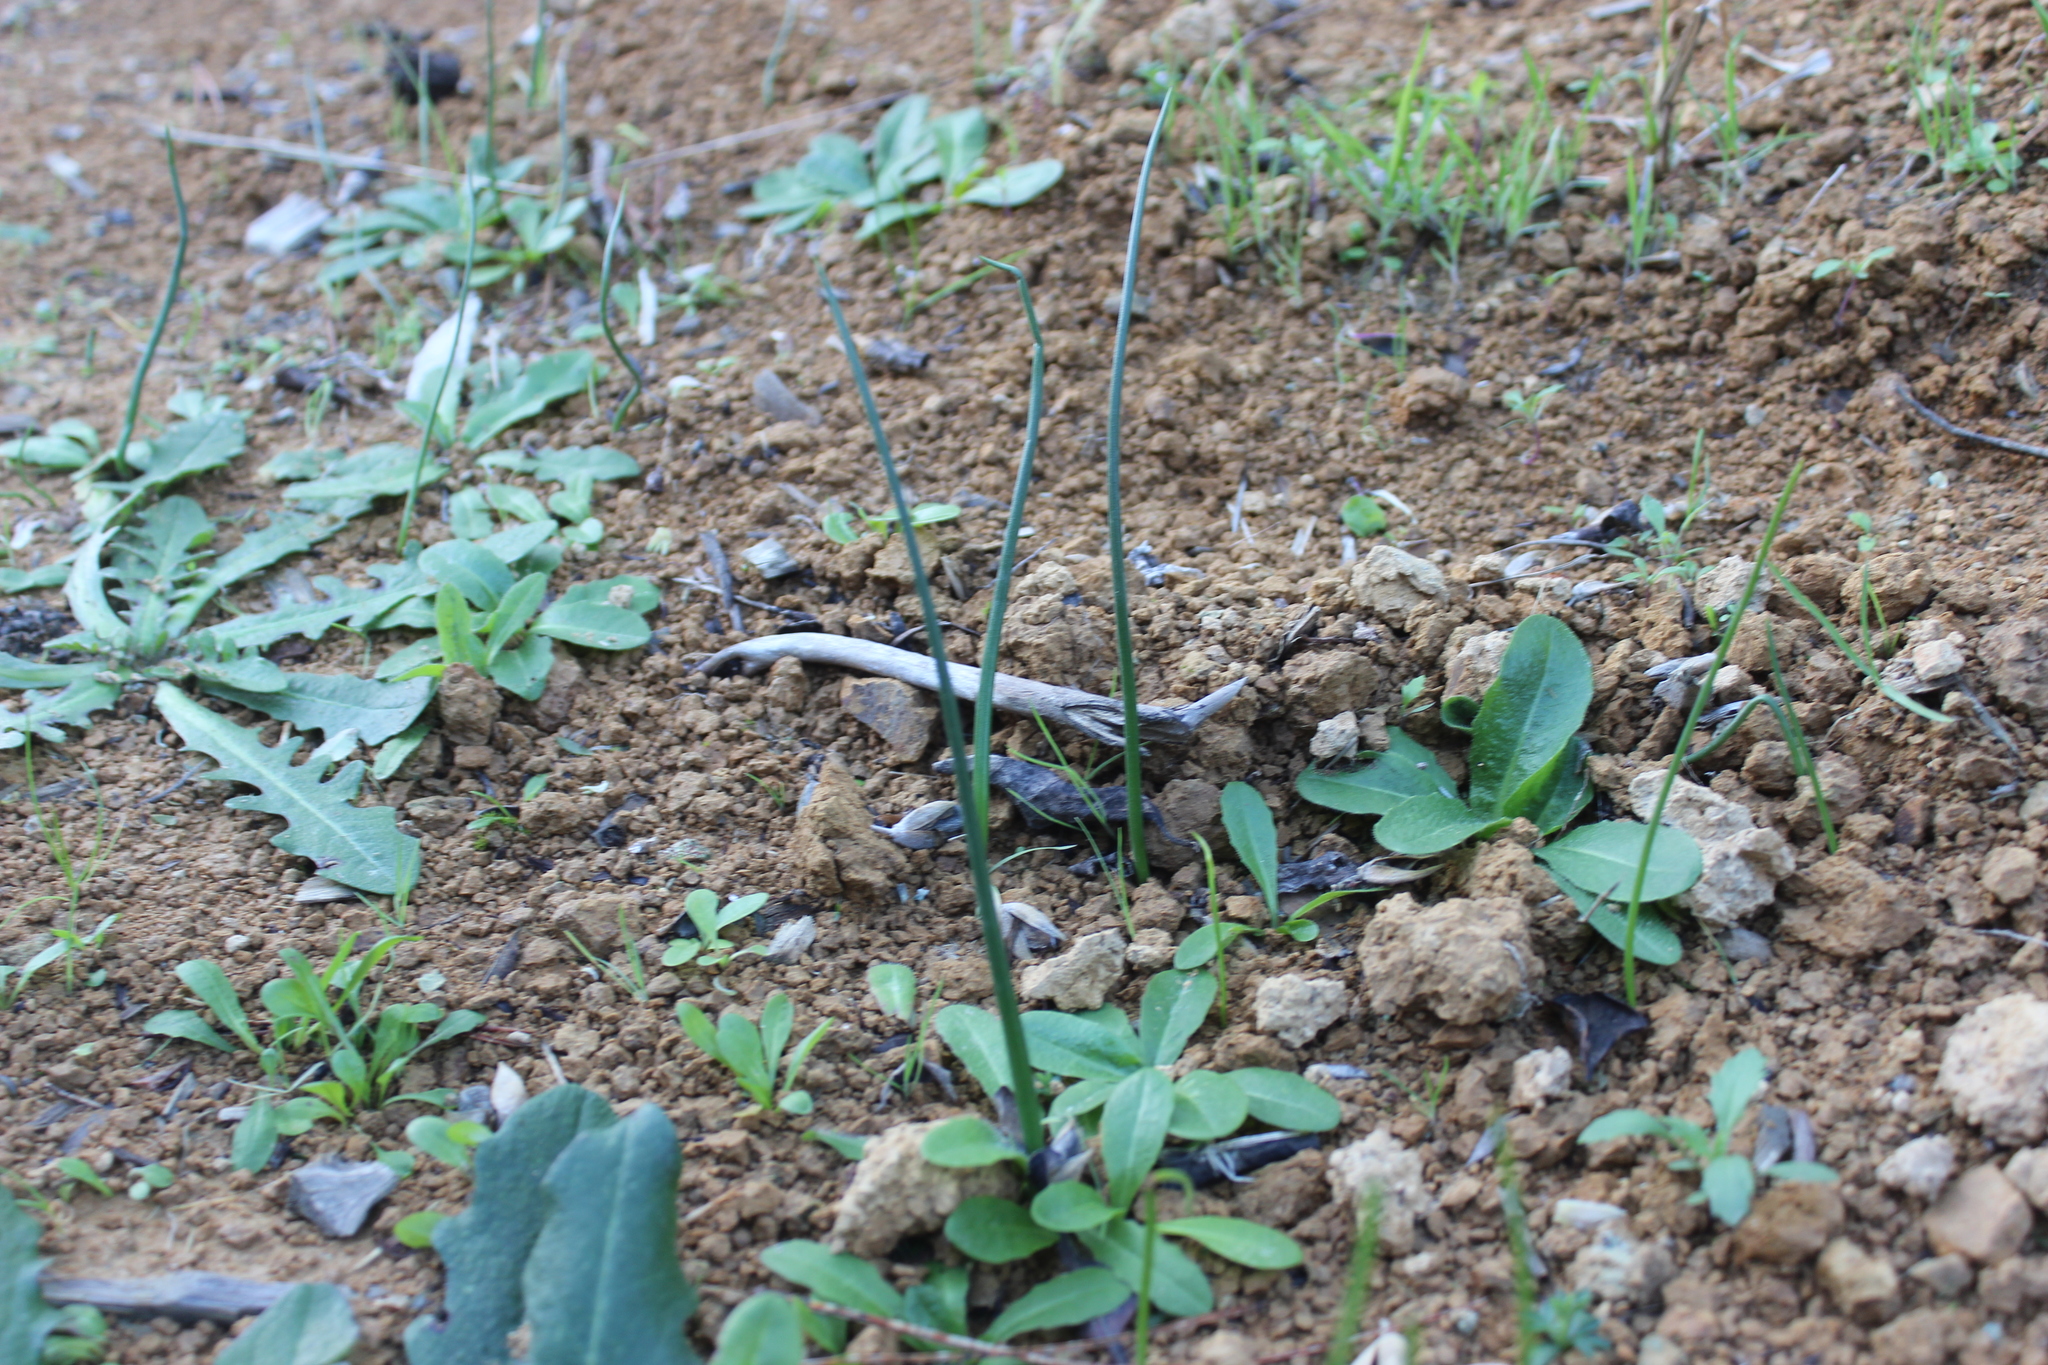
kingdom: Plantae
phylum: Tracheophyta
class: Liliopsida
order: Asparagales
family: Orchidaceae
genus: Microtis
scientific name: Microtis unifolia
